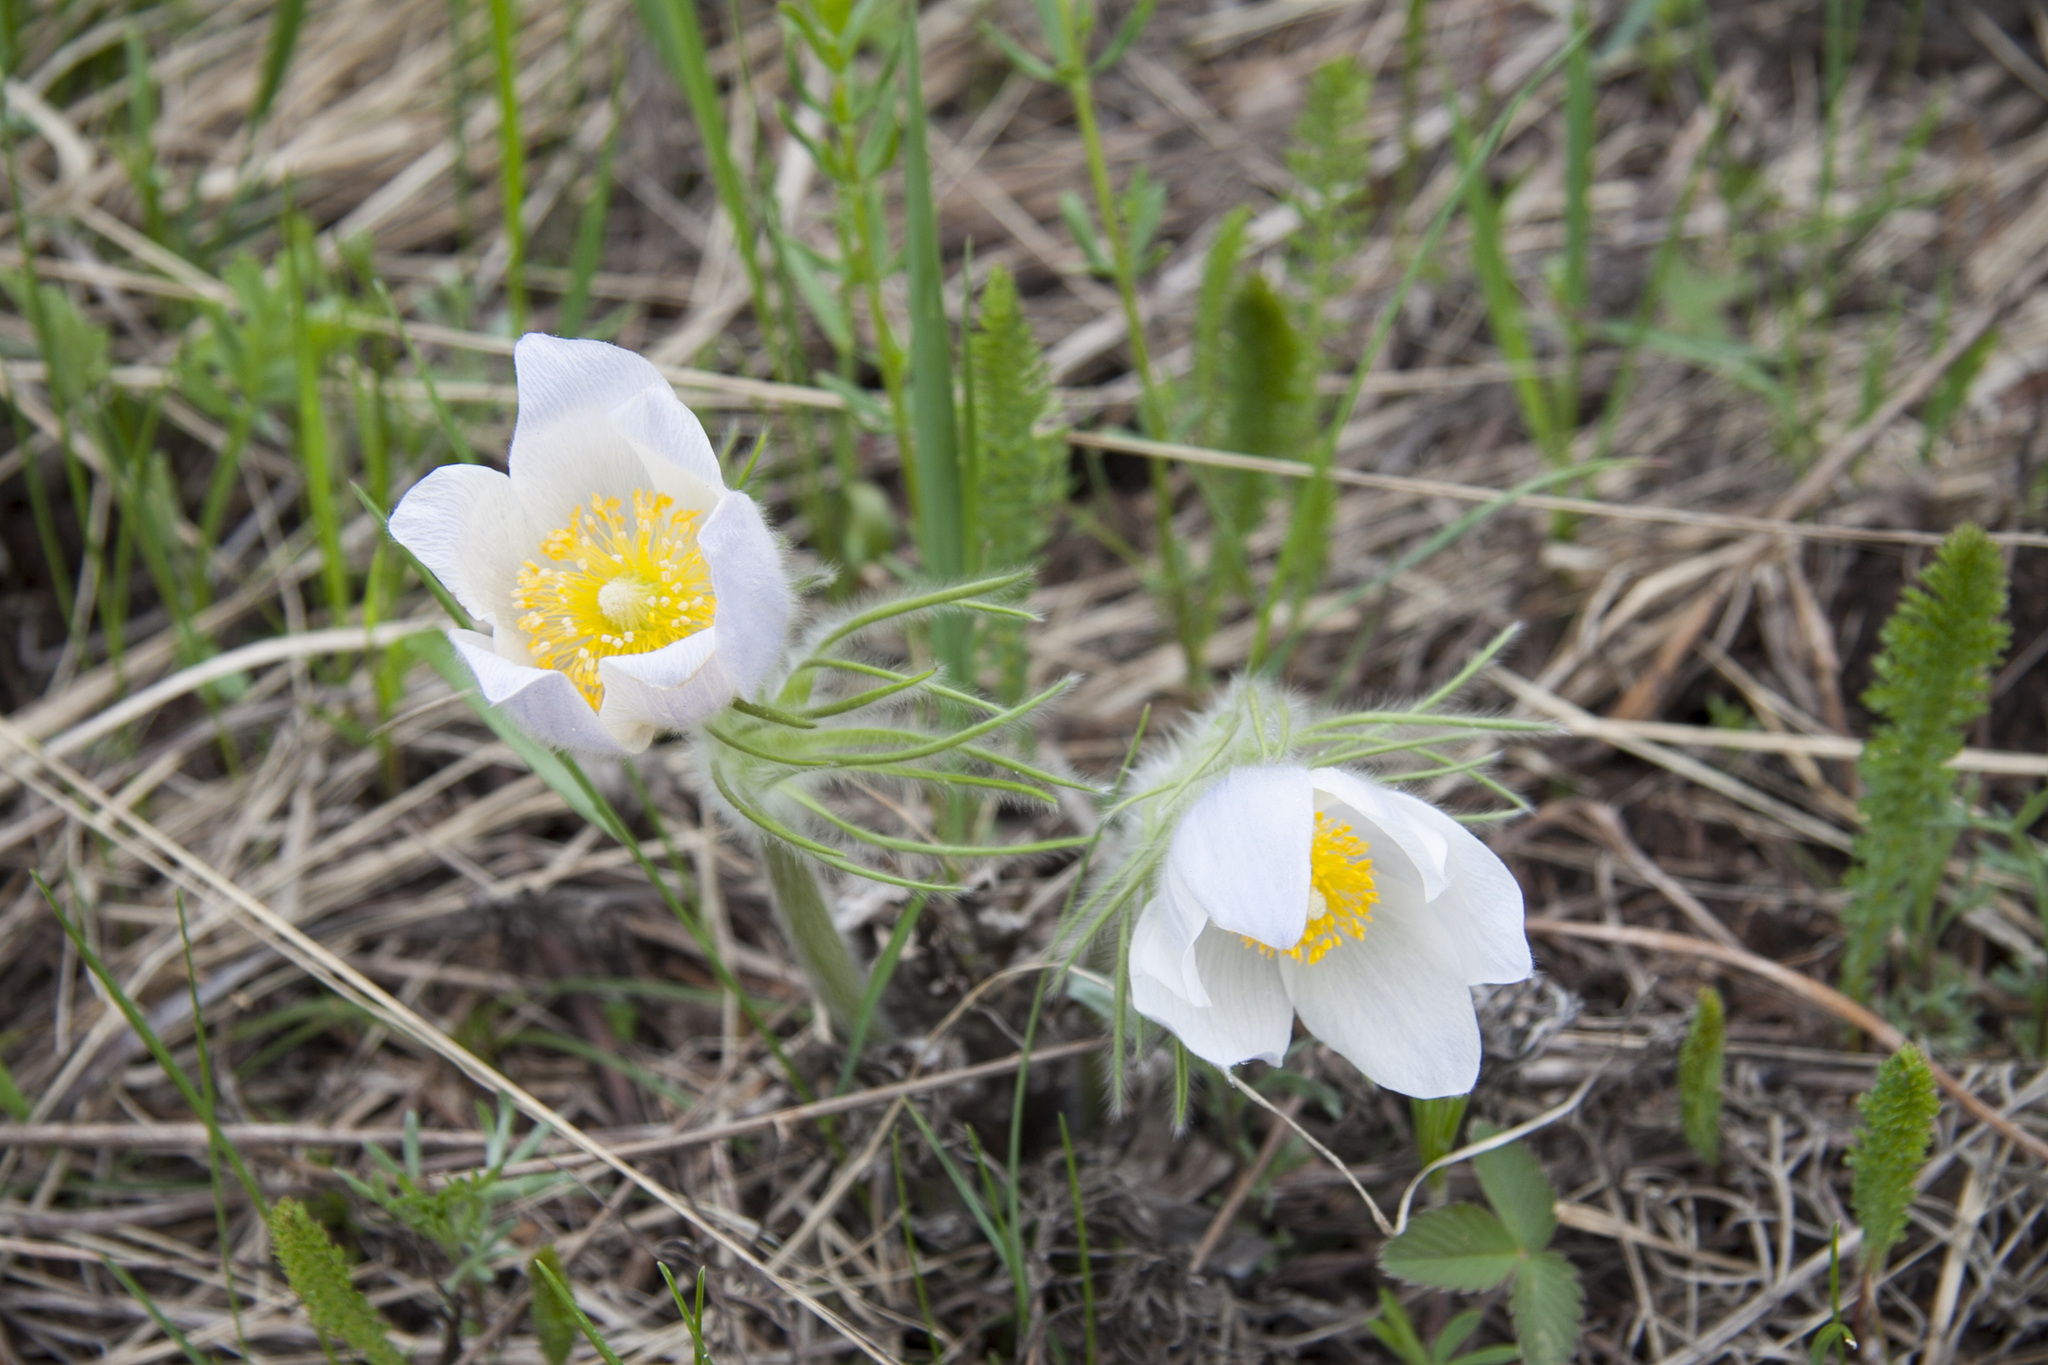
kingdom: Plantae
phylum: Tracheophyta
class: Magnoliopsida
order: Ranunculales
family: Ranunculaceae
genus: Pulsatilla
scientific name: Pulsatilla patens
